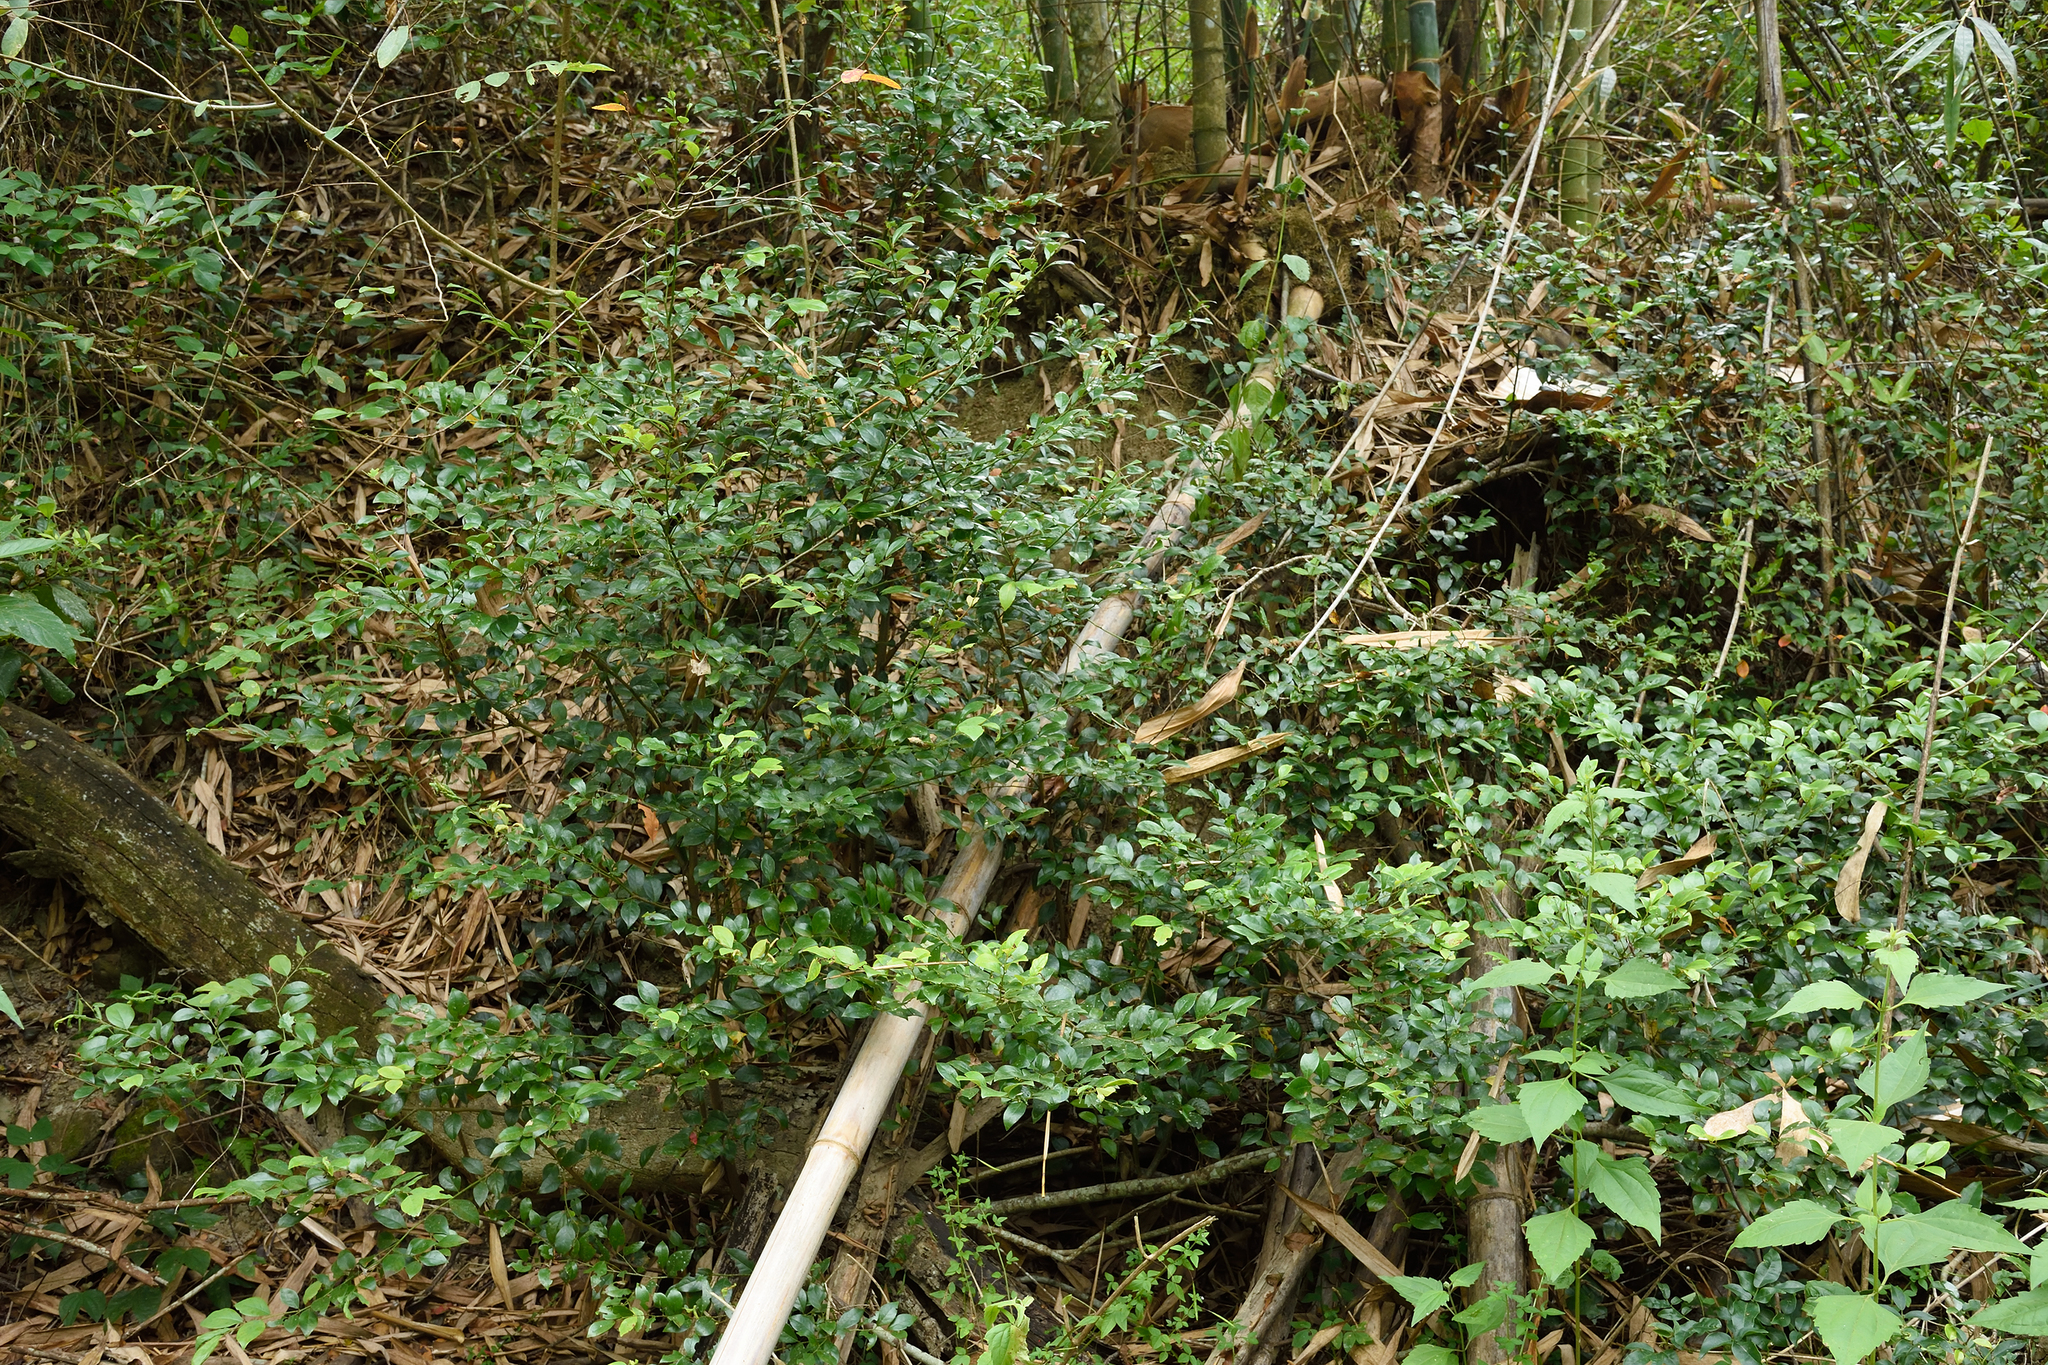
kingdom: Plantae
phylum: Tracheophyta
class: Magnoliopsida
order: Laurales
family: Lauraceae
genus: Lindera
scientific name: Lindera akoensis
